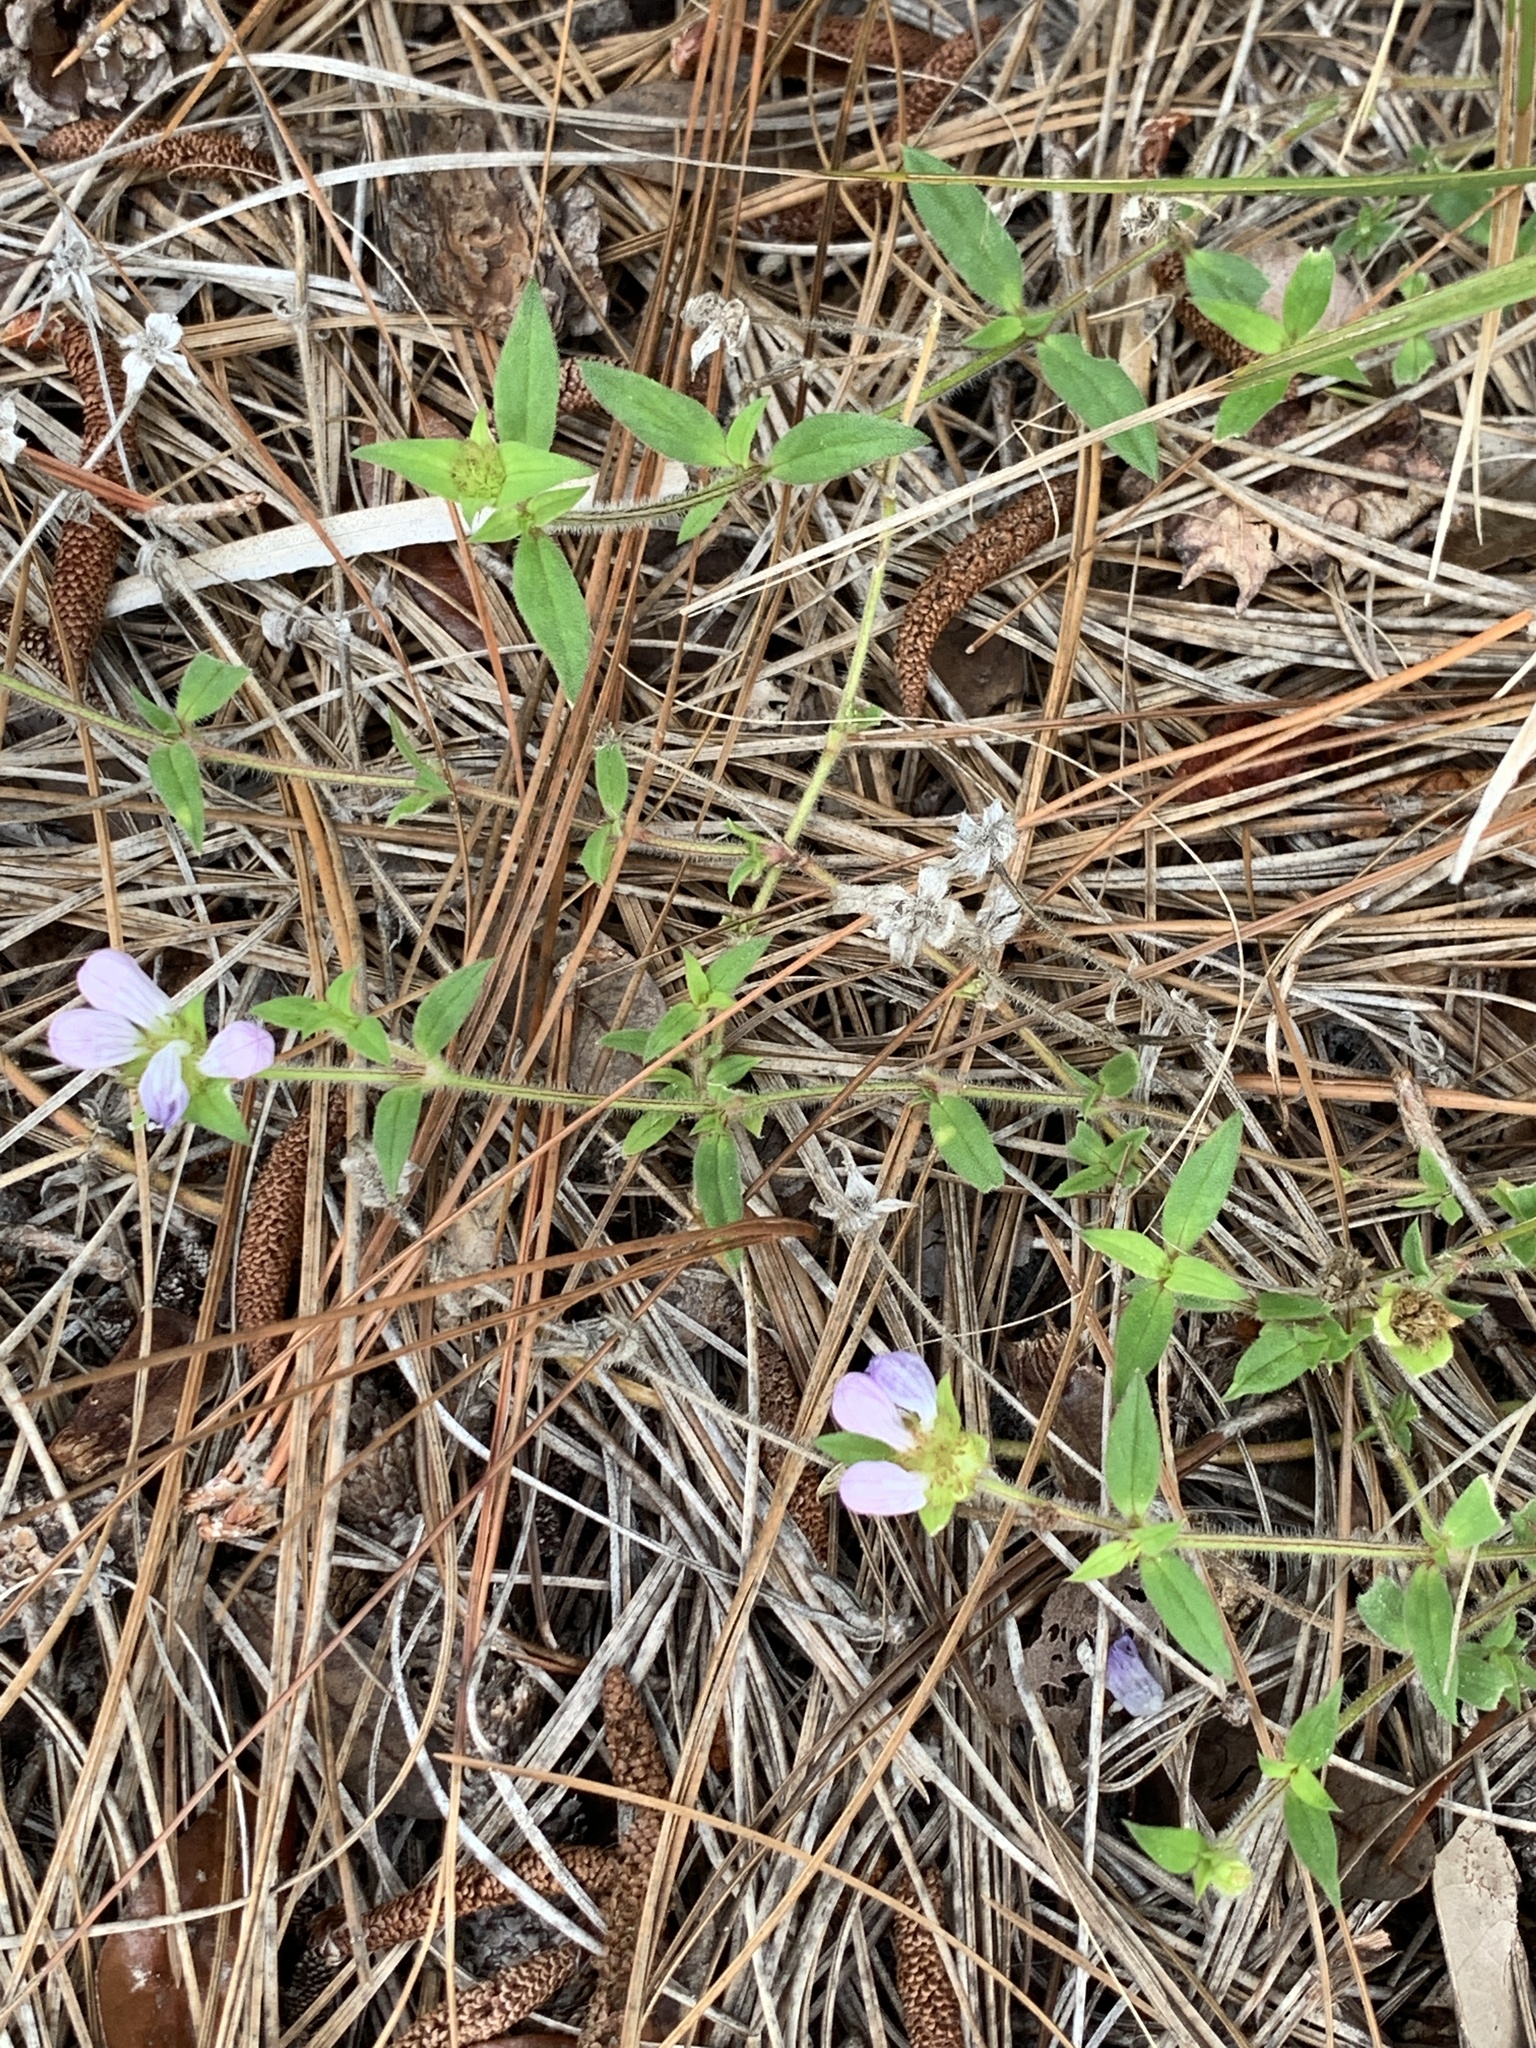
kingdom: Plantae
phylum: Tracheophyta
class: Magnoliopsida
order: Gentianales
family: Rubiaceae
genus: Richardia
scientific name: Richardia grandiflora
